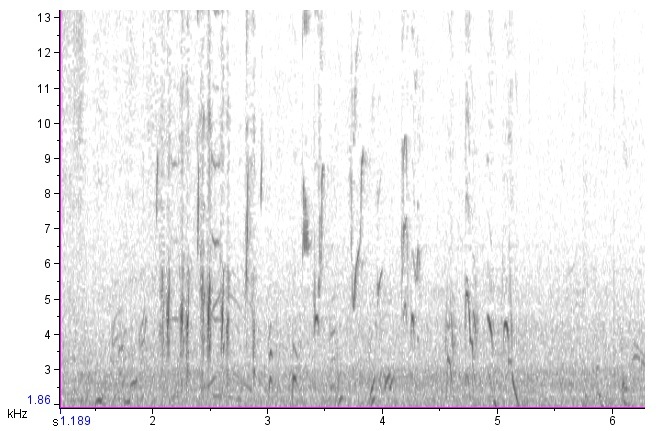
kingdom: Animalia
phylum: Chordata
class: Aves
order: Passeriformes
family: Icteridae
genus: Dolichonyx
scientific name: Dolichonyx oryzivorus
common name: Bobolink
